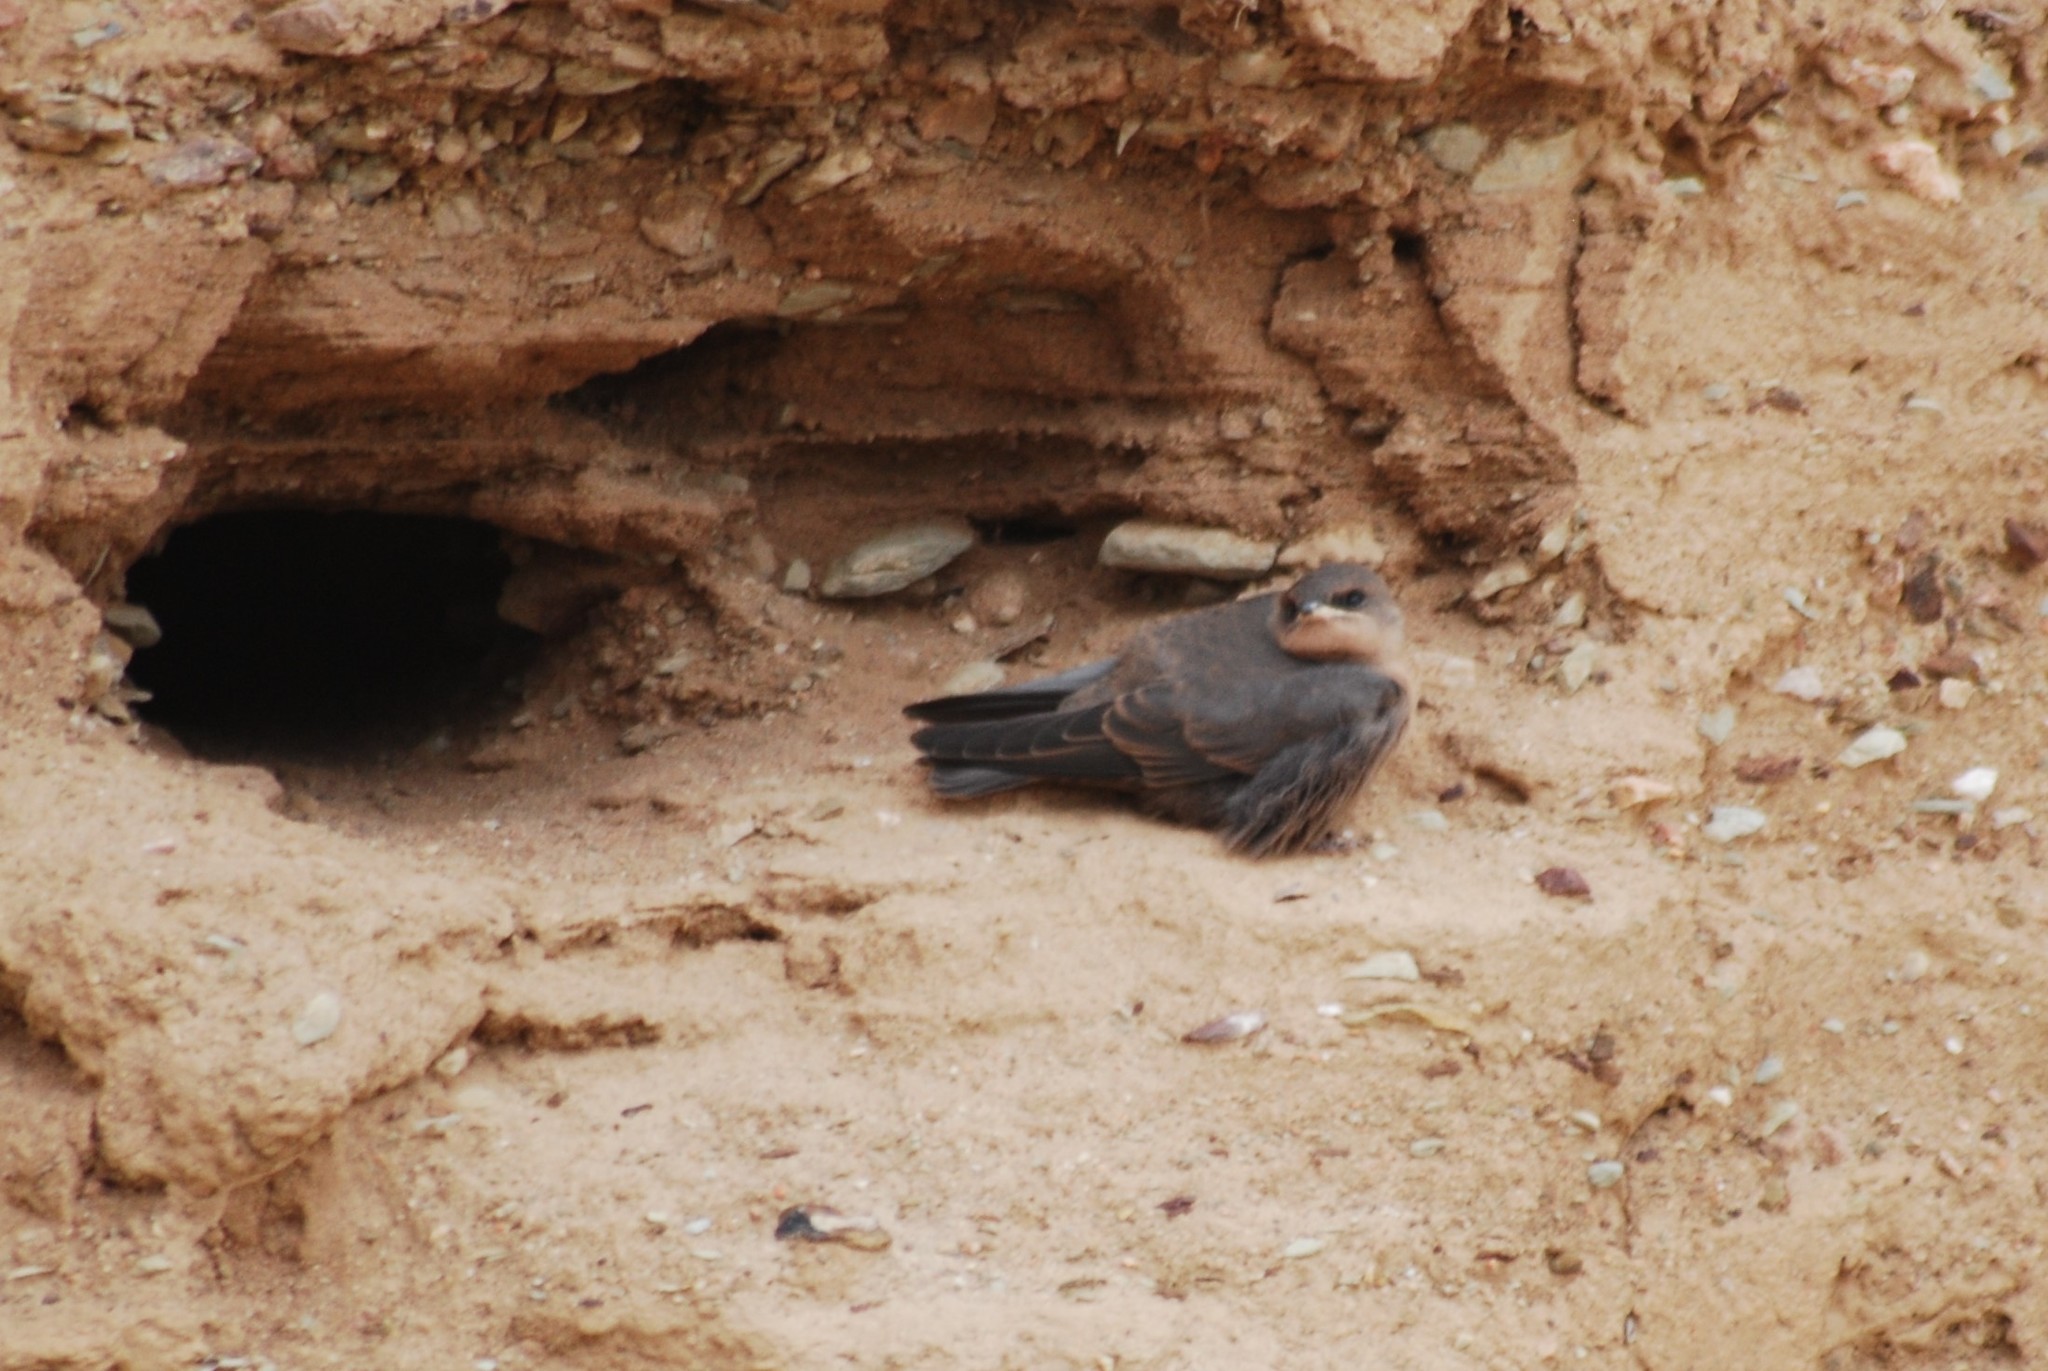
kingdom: Animalia
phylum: Chordata
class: Aves
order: Passeriformes
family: Hirundinidae
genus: Ptyonoprogne
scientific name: Ptyonoprogne fuligula
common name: Rock martin
